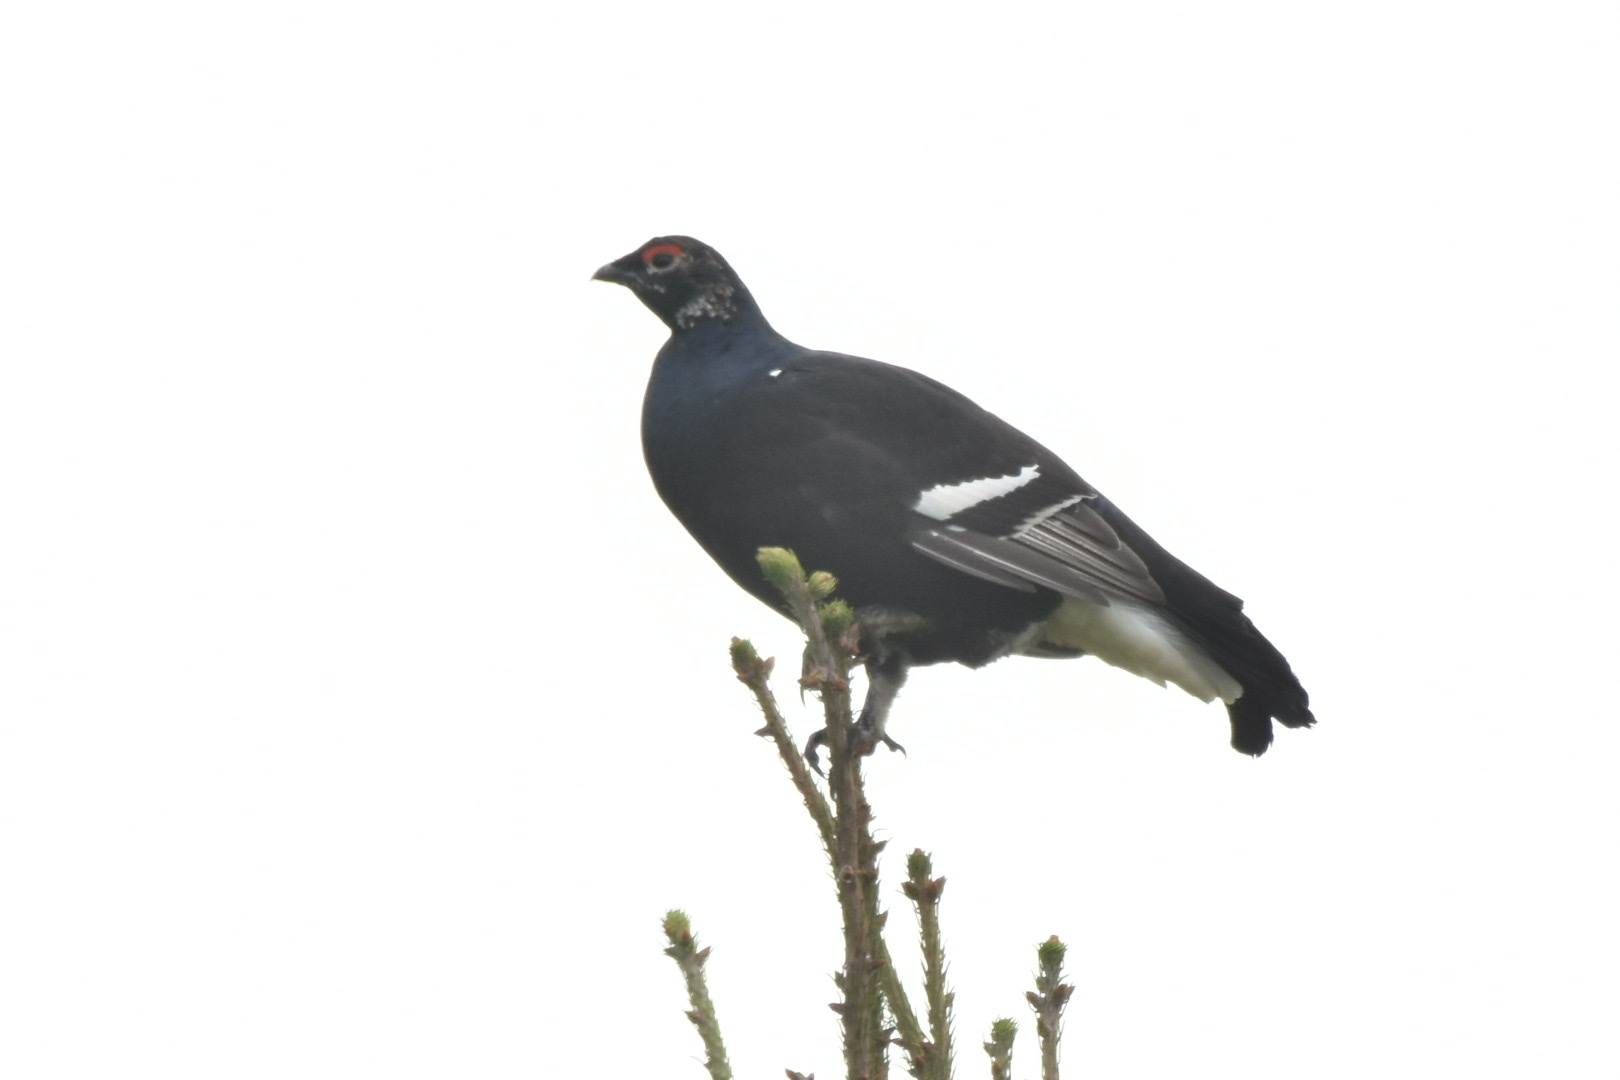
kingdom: Animalia
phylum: Chordata
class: Aves
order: Galliformes
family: Phasianidae
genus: Lyrurus
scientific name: Lyrurus tetrix
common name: Black grouse
